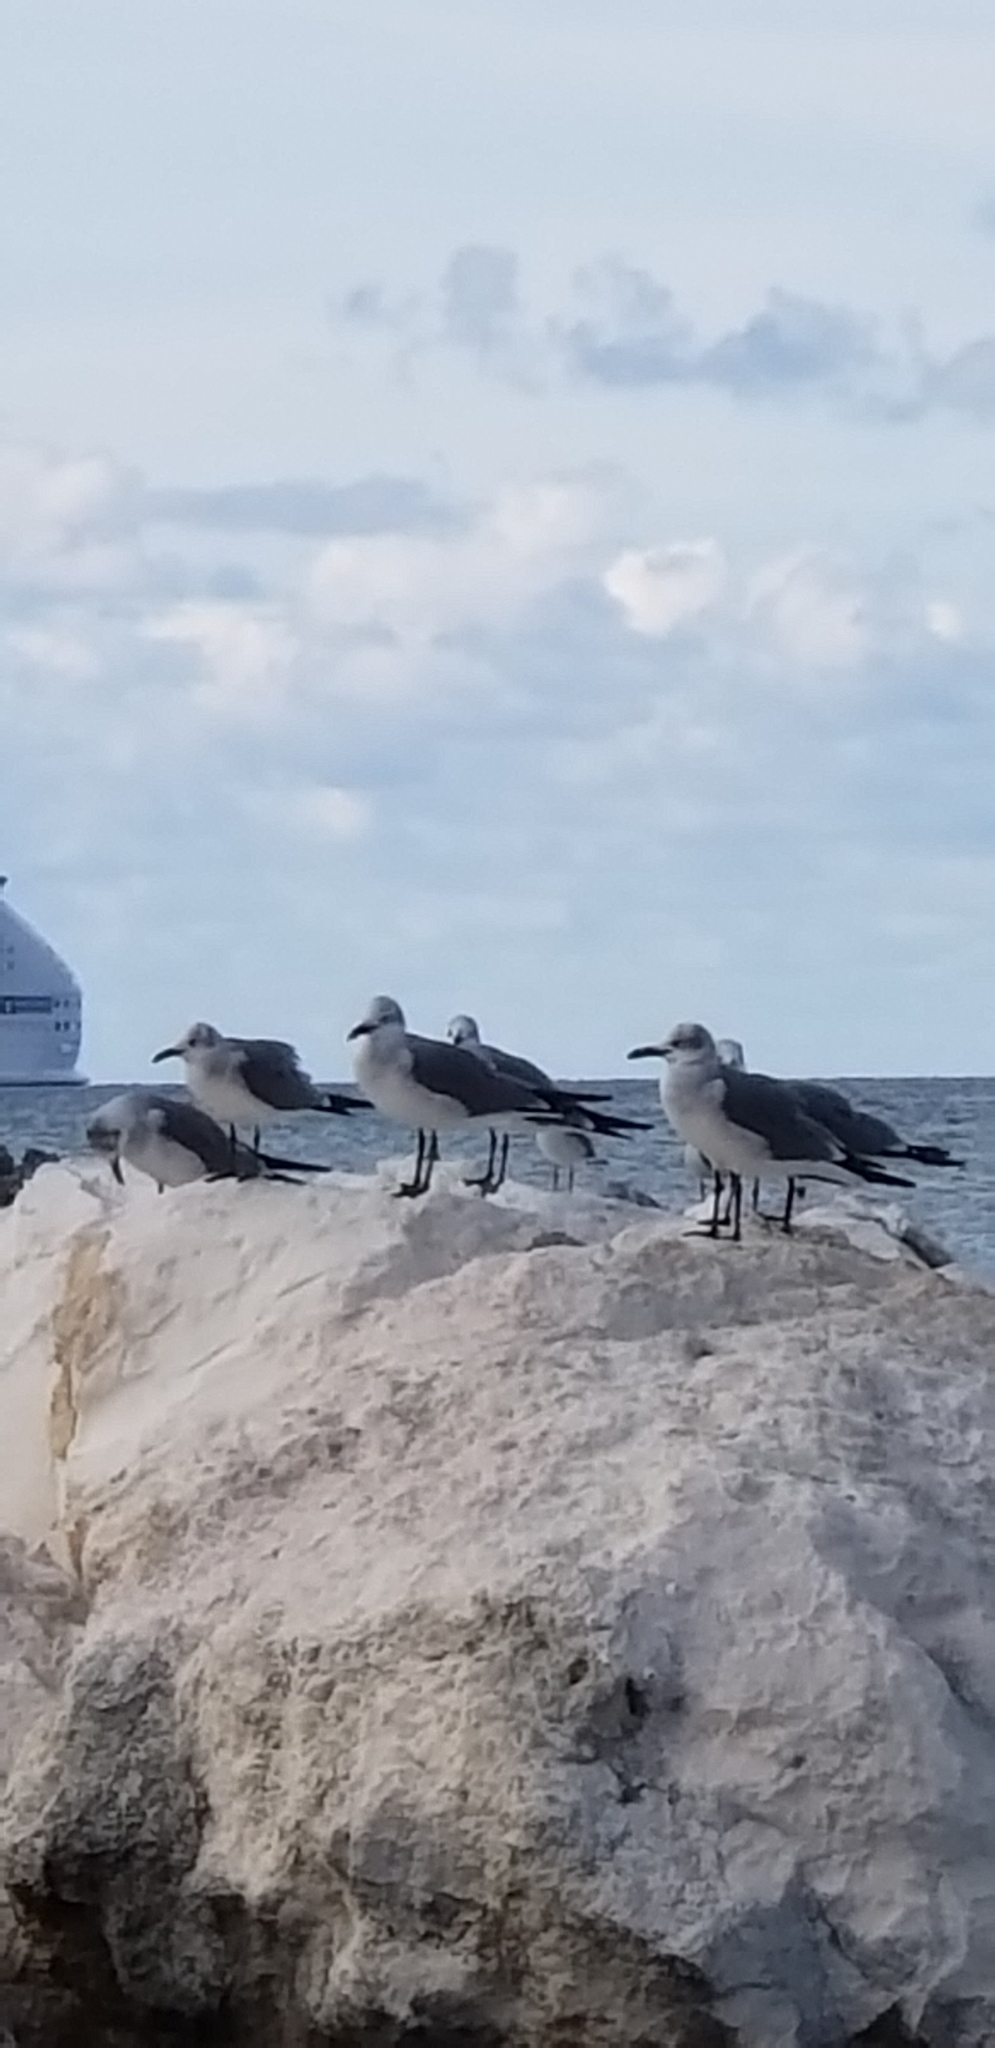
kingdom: Animalia
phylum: Chordata
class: Aves
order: Charadriiformes
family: Laridae
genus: Leucophaeus
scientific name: Leucophaeus atricilla
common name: Laughing gull
